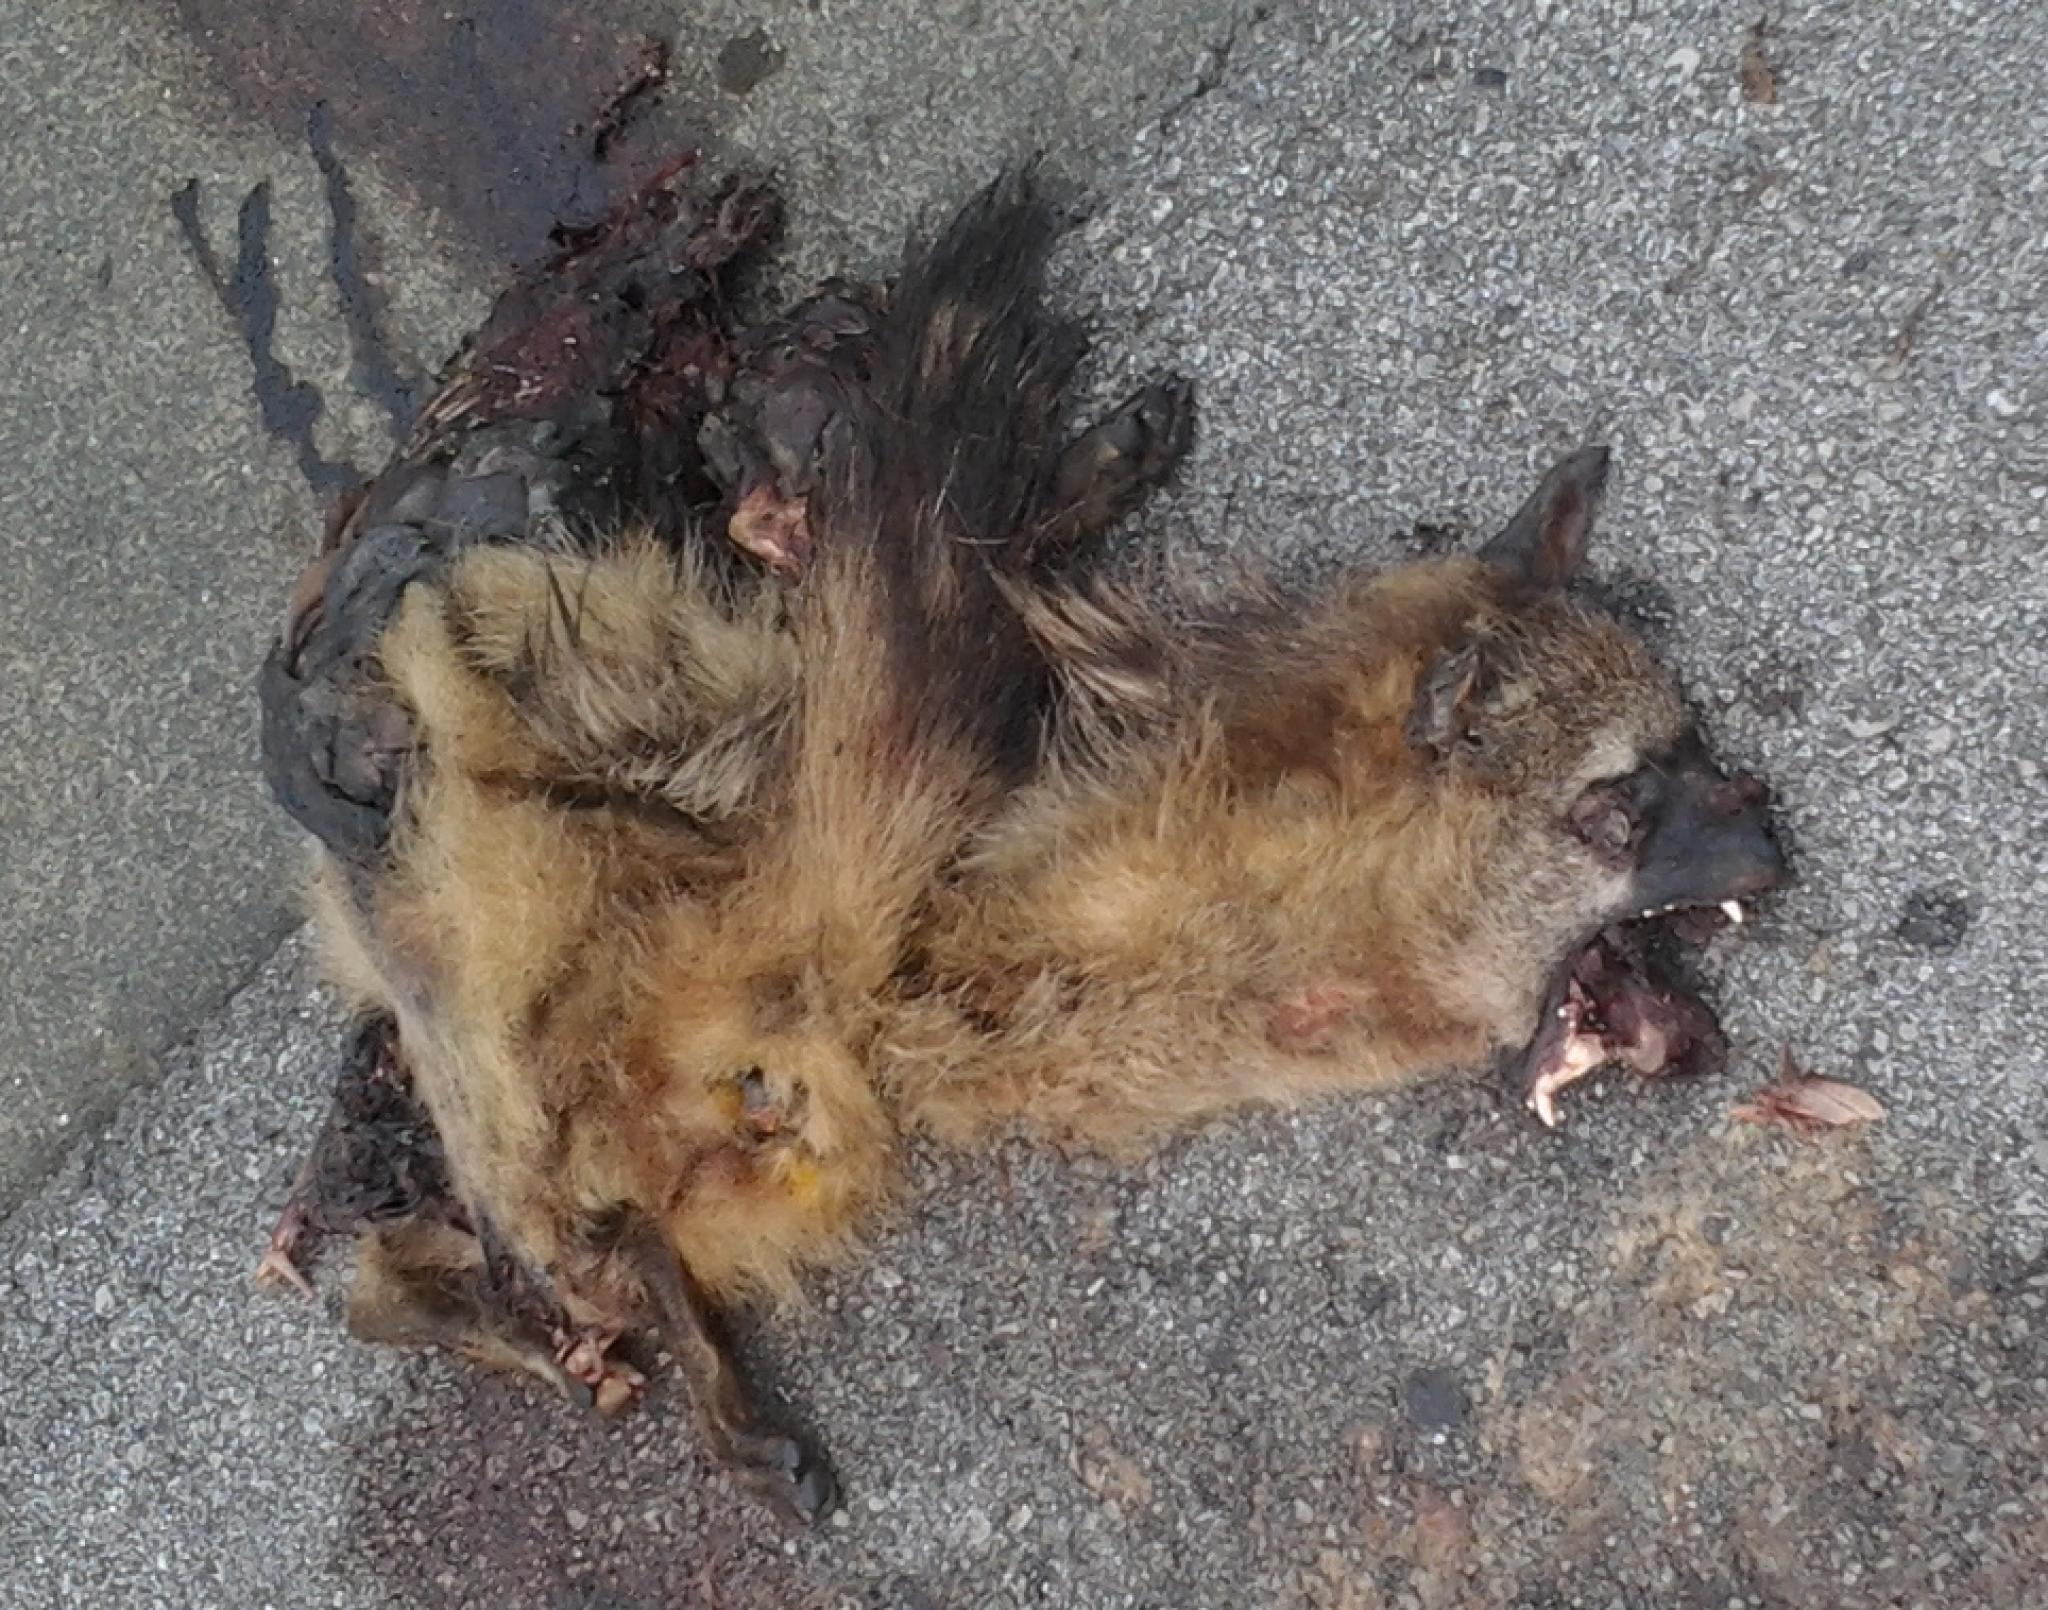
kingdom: Animalia
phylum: Chordata
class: Mammalia
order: Carnivora
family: Hyaenidae
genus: Proteles
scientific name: Proteles cristata
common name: Aardwolf
